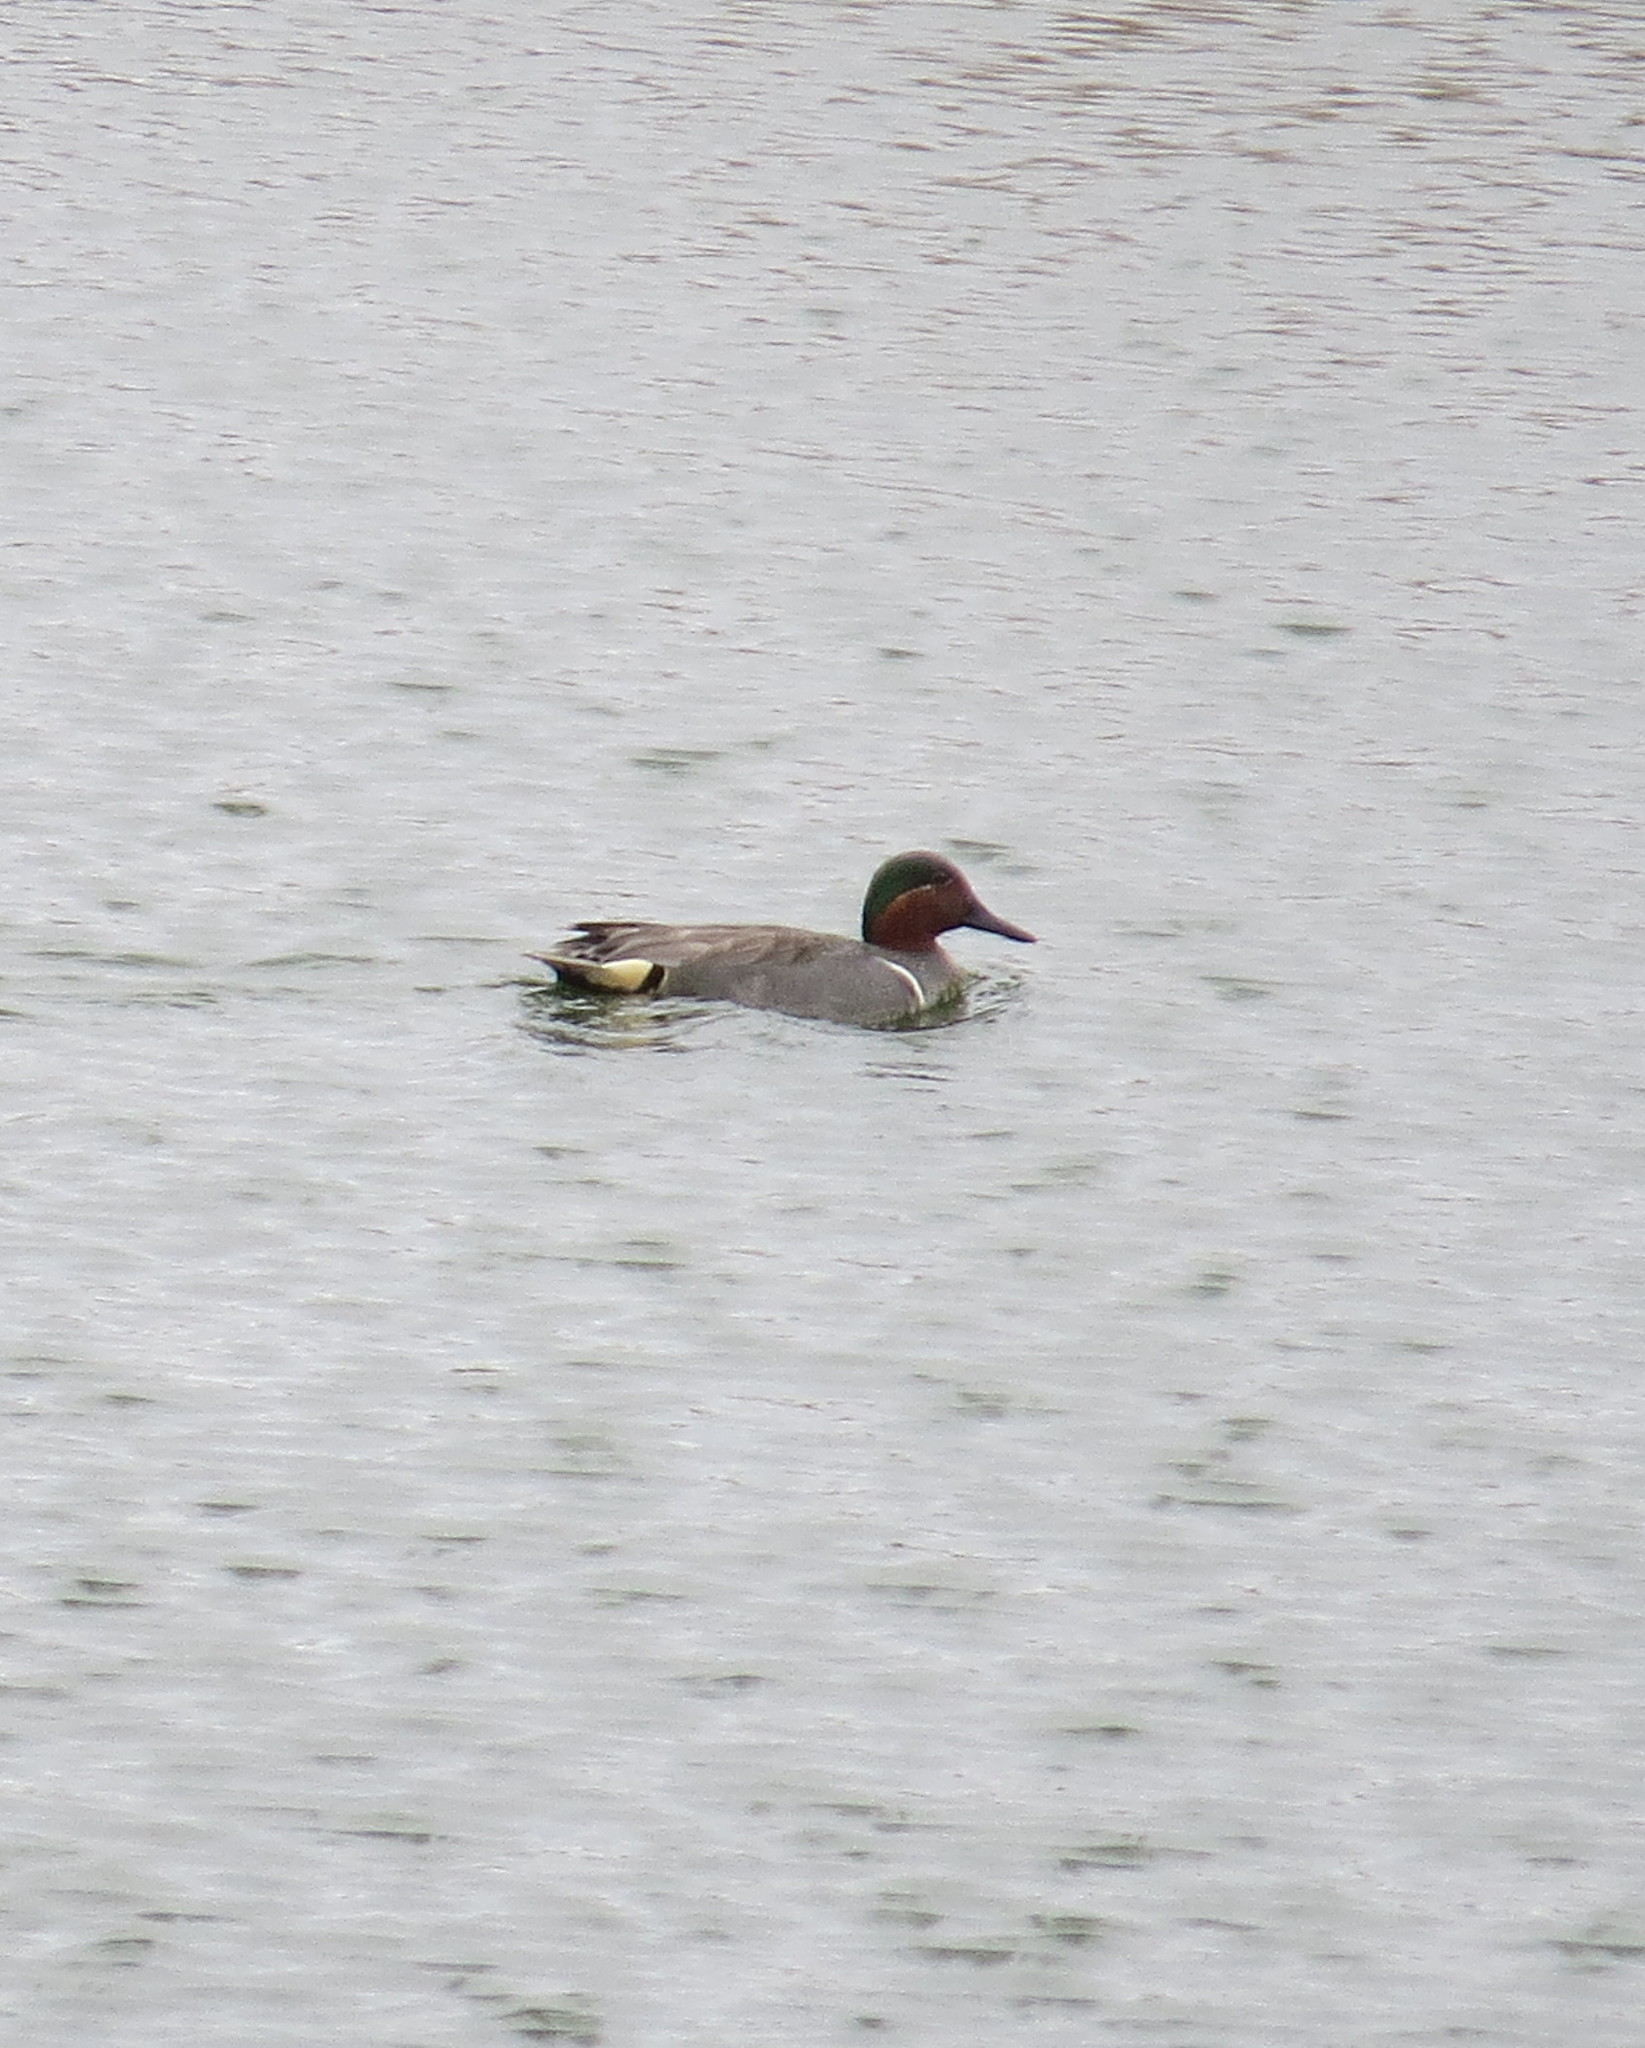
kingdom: Animalia
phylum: Chordata
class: Aves
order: Anseriformes
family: Anatidae
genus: Anas
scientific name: Anas crecca
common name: Eurasian teal
